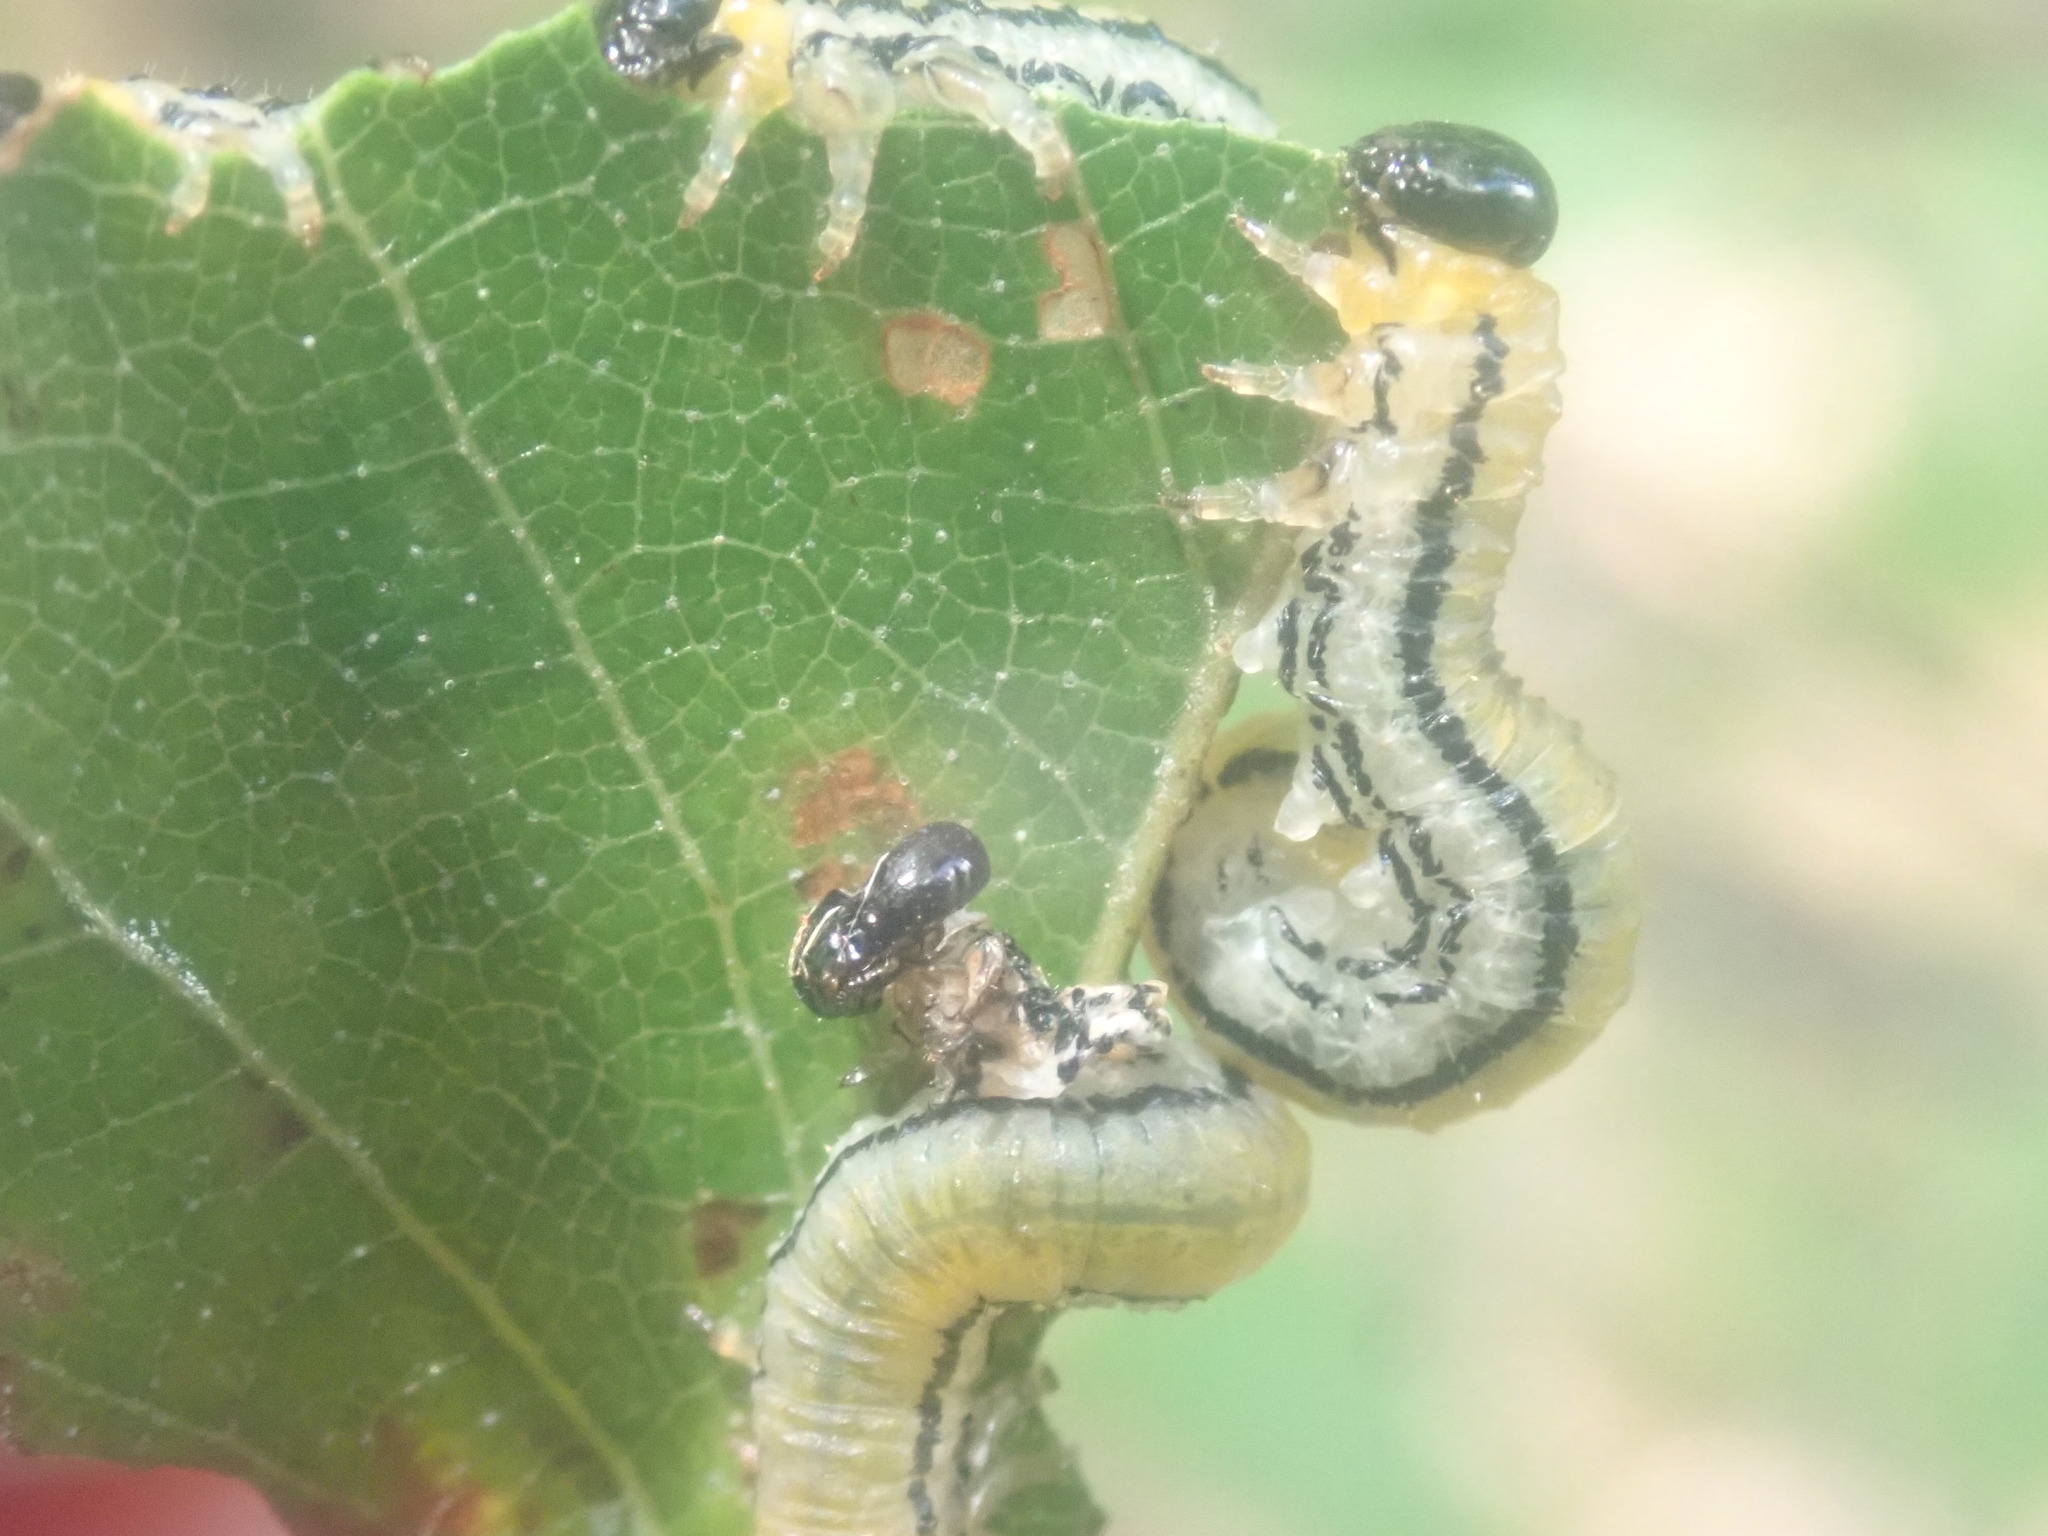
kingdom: Animalia
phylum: Arthropoda
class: Insecta
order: Hymenoptera
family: Tenthredinidae
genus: Hemichroa
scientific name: Hemichroa crocea
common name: Striped alder sawfly
